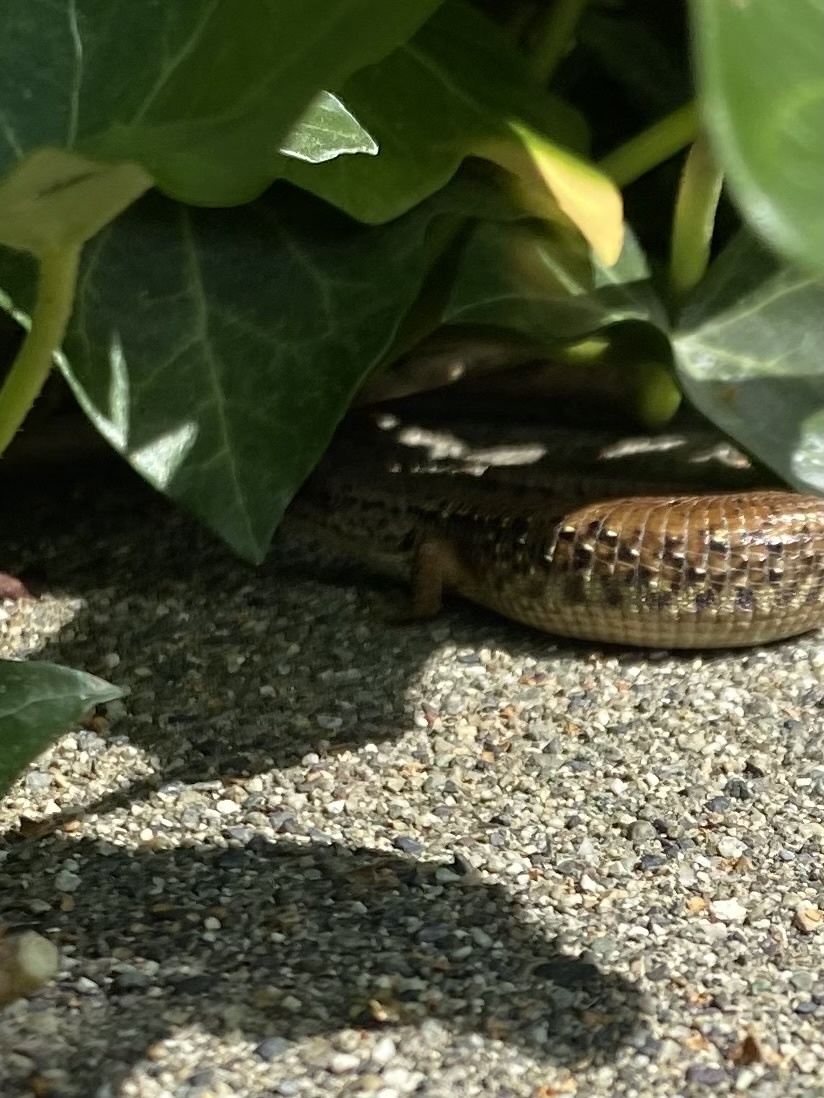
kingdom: Animalia
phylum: Chordata
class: Squamata
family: Anguidae
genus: Elgaria
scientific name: Elgaria coerulea
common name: Northern alligator lizard
